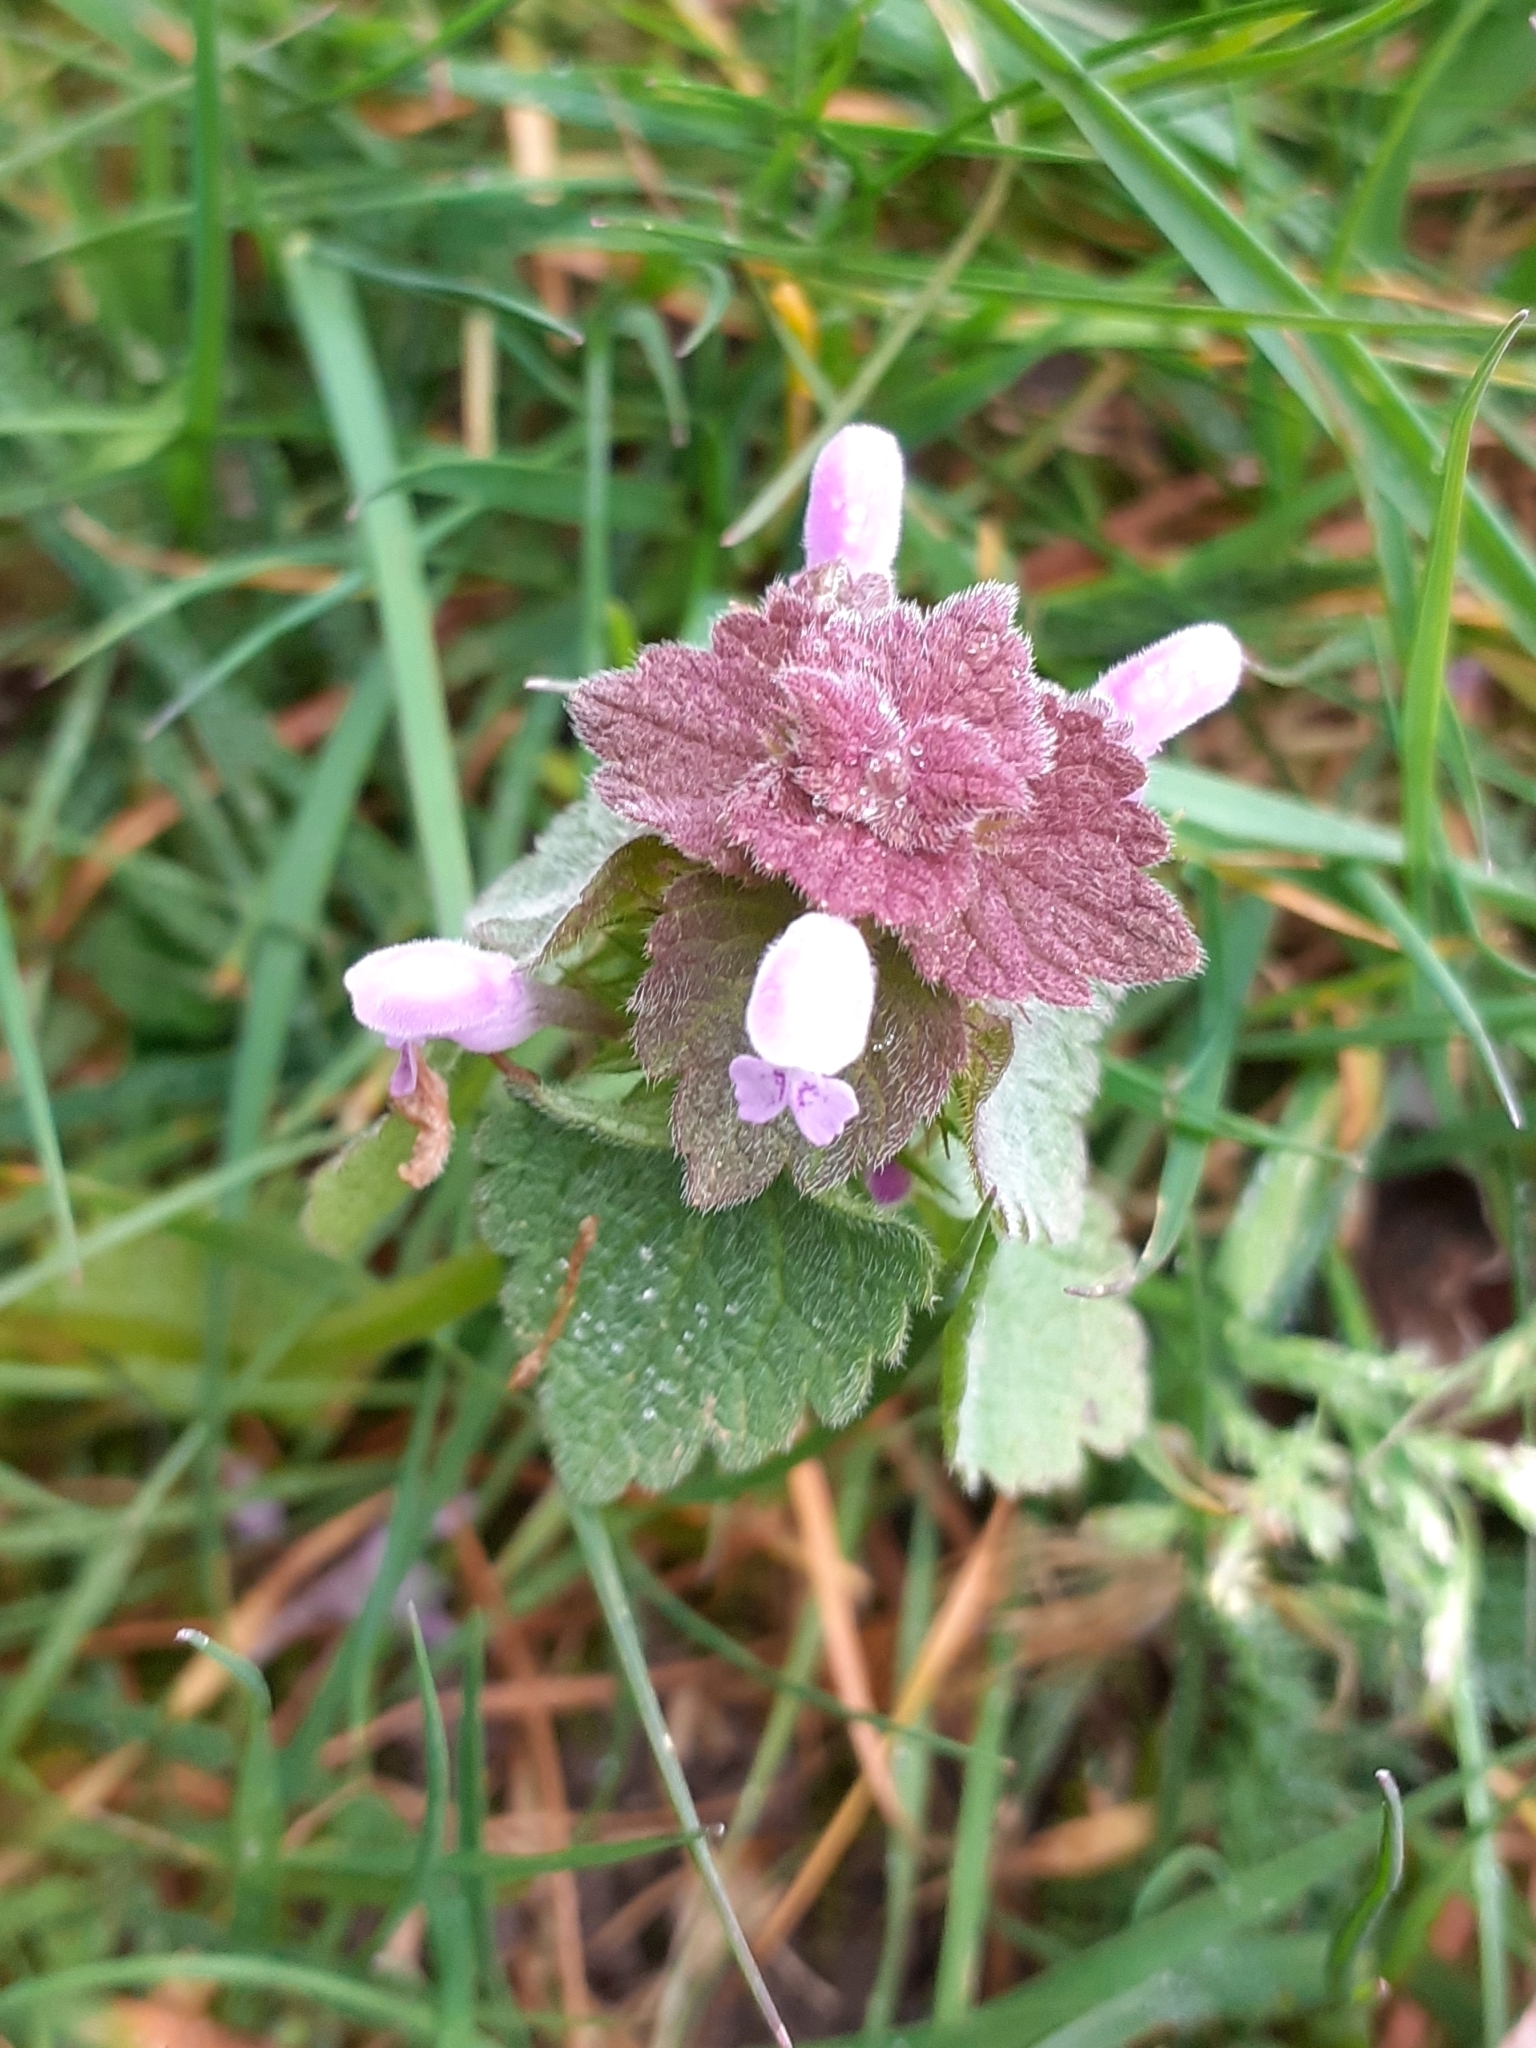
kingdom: Plantae
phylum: Tracheophyta
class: Magnoliopsida
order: Lamiales
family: Lamiaceae
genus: Lamium
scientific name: Lamium purpureum
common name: Red dead-nettle
